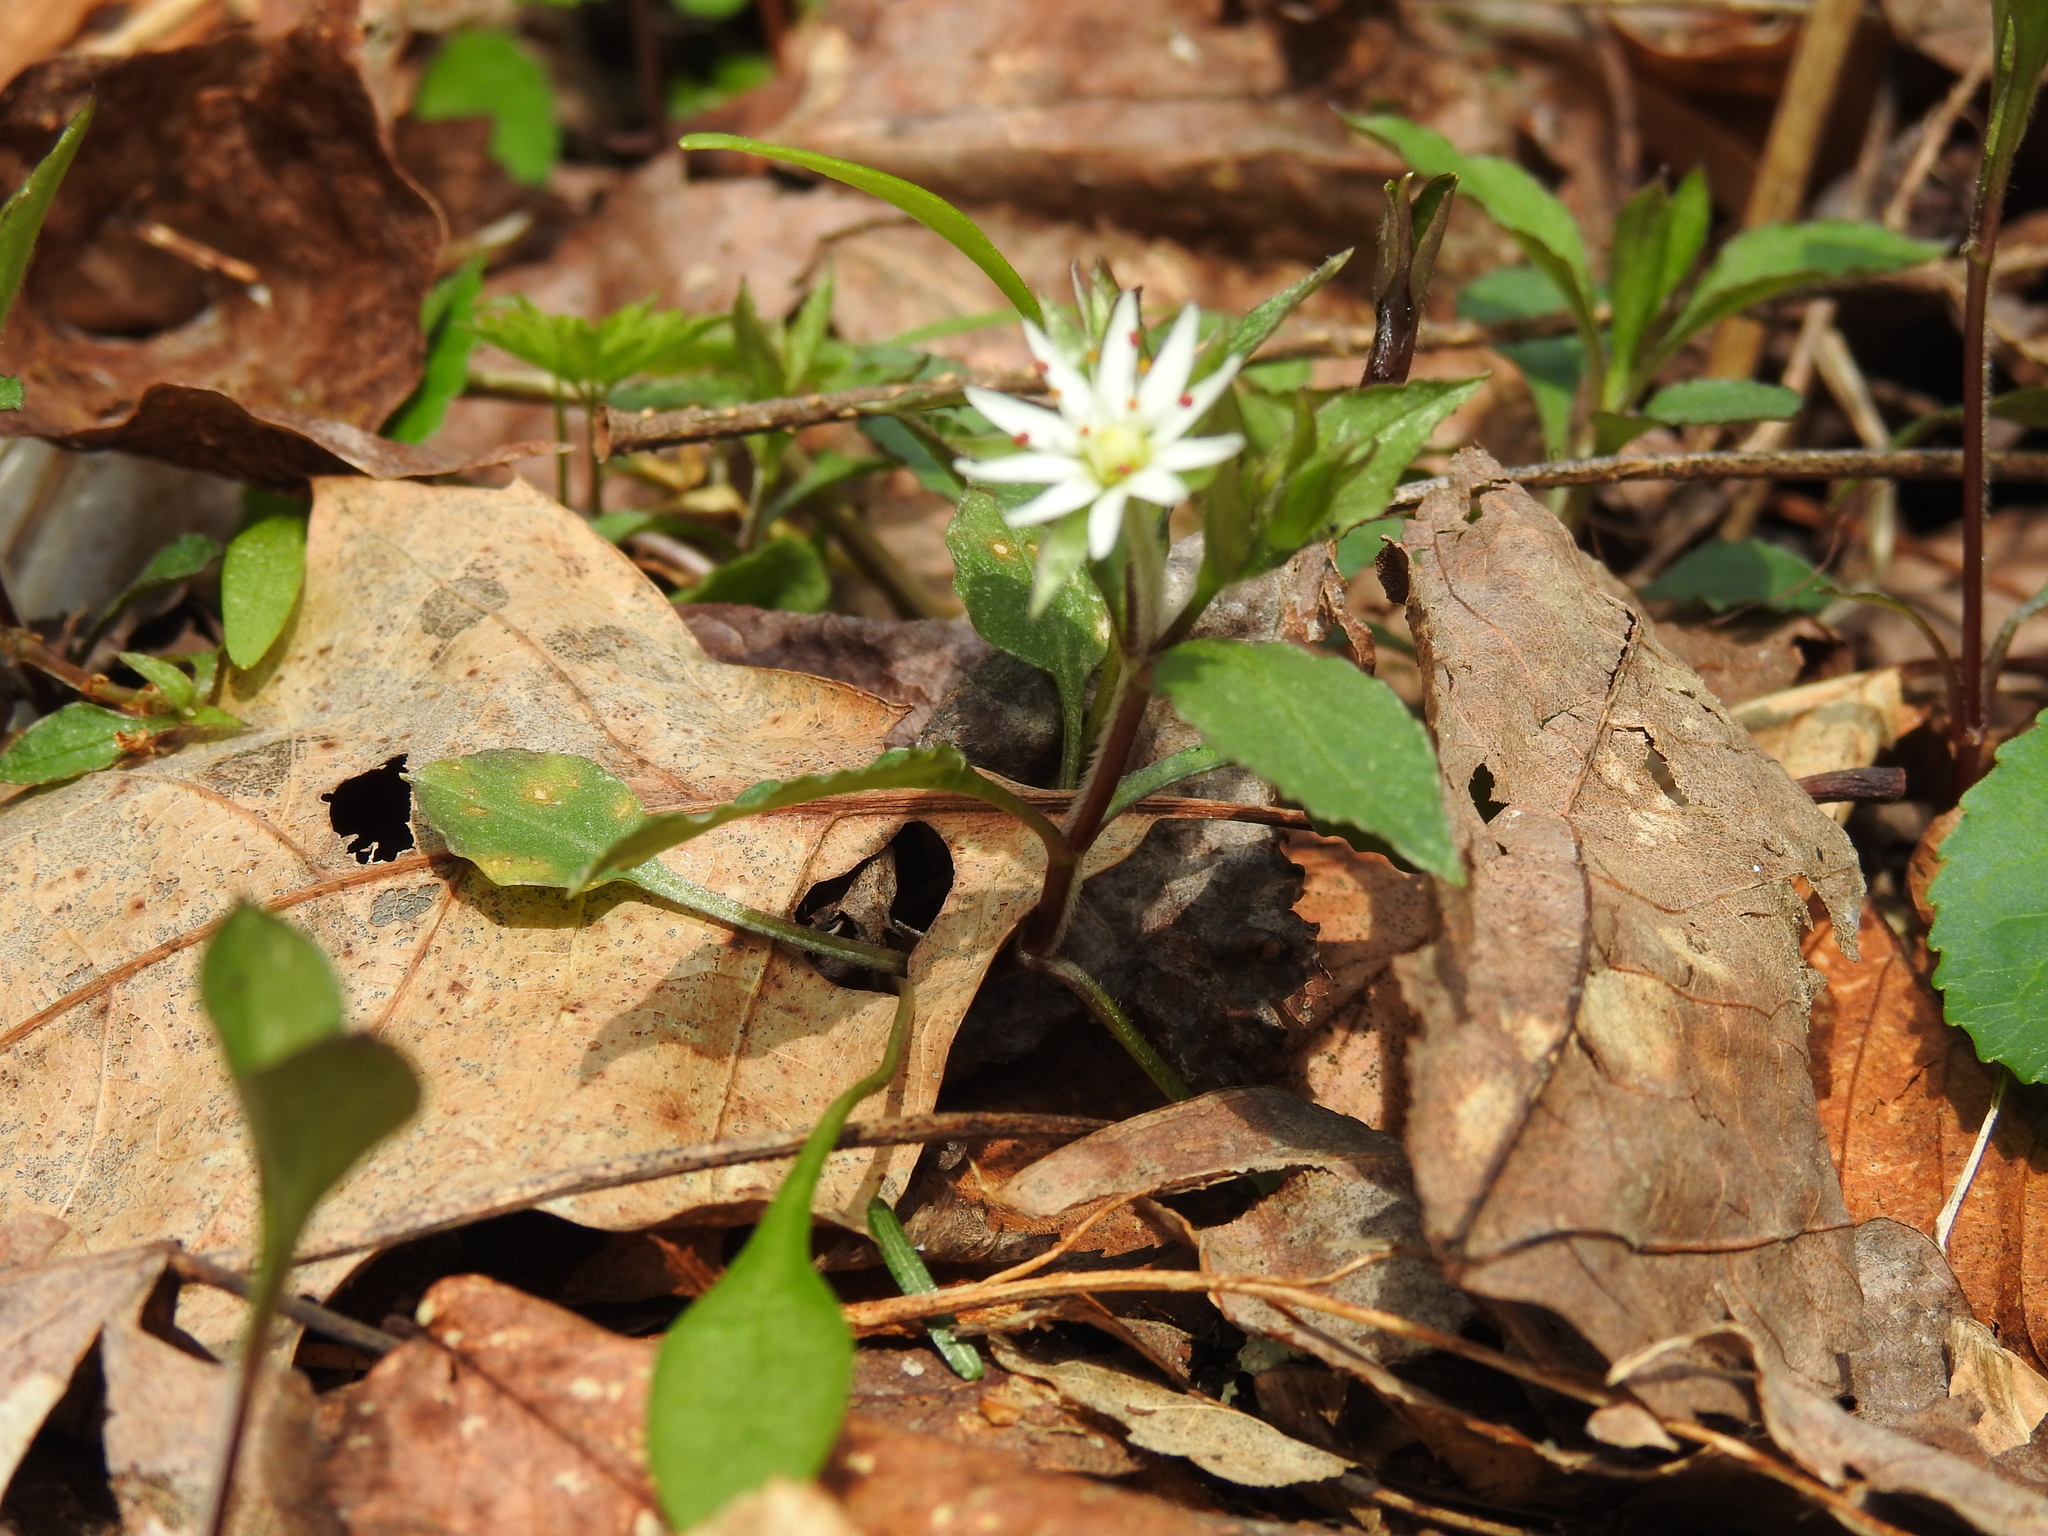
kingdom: Plantae
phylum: Tracheophyta
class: Magnoliopsida
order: Caryophyllales
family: Caryophyllaceae
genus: Stellaria
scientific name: Stellaria pubera
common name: Star chickweed
